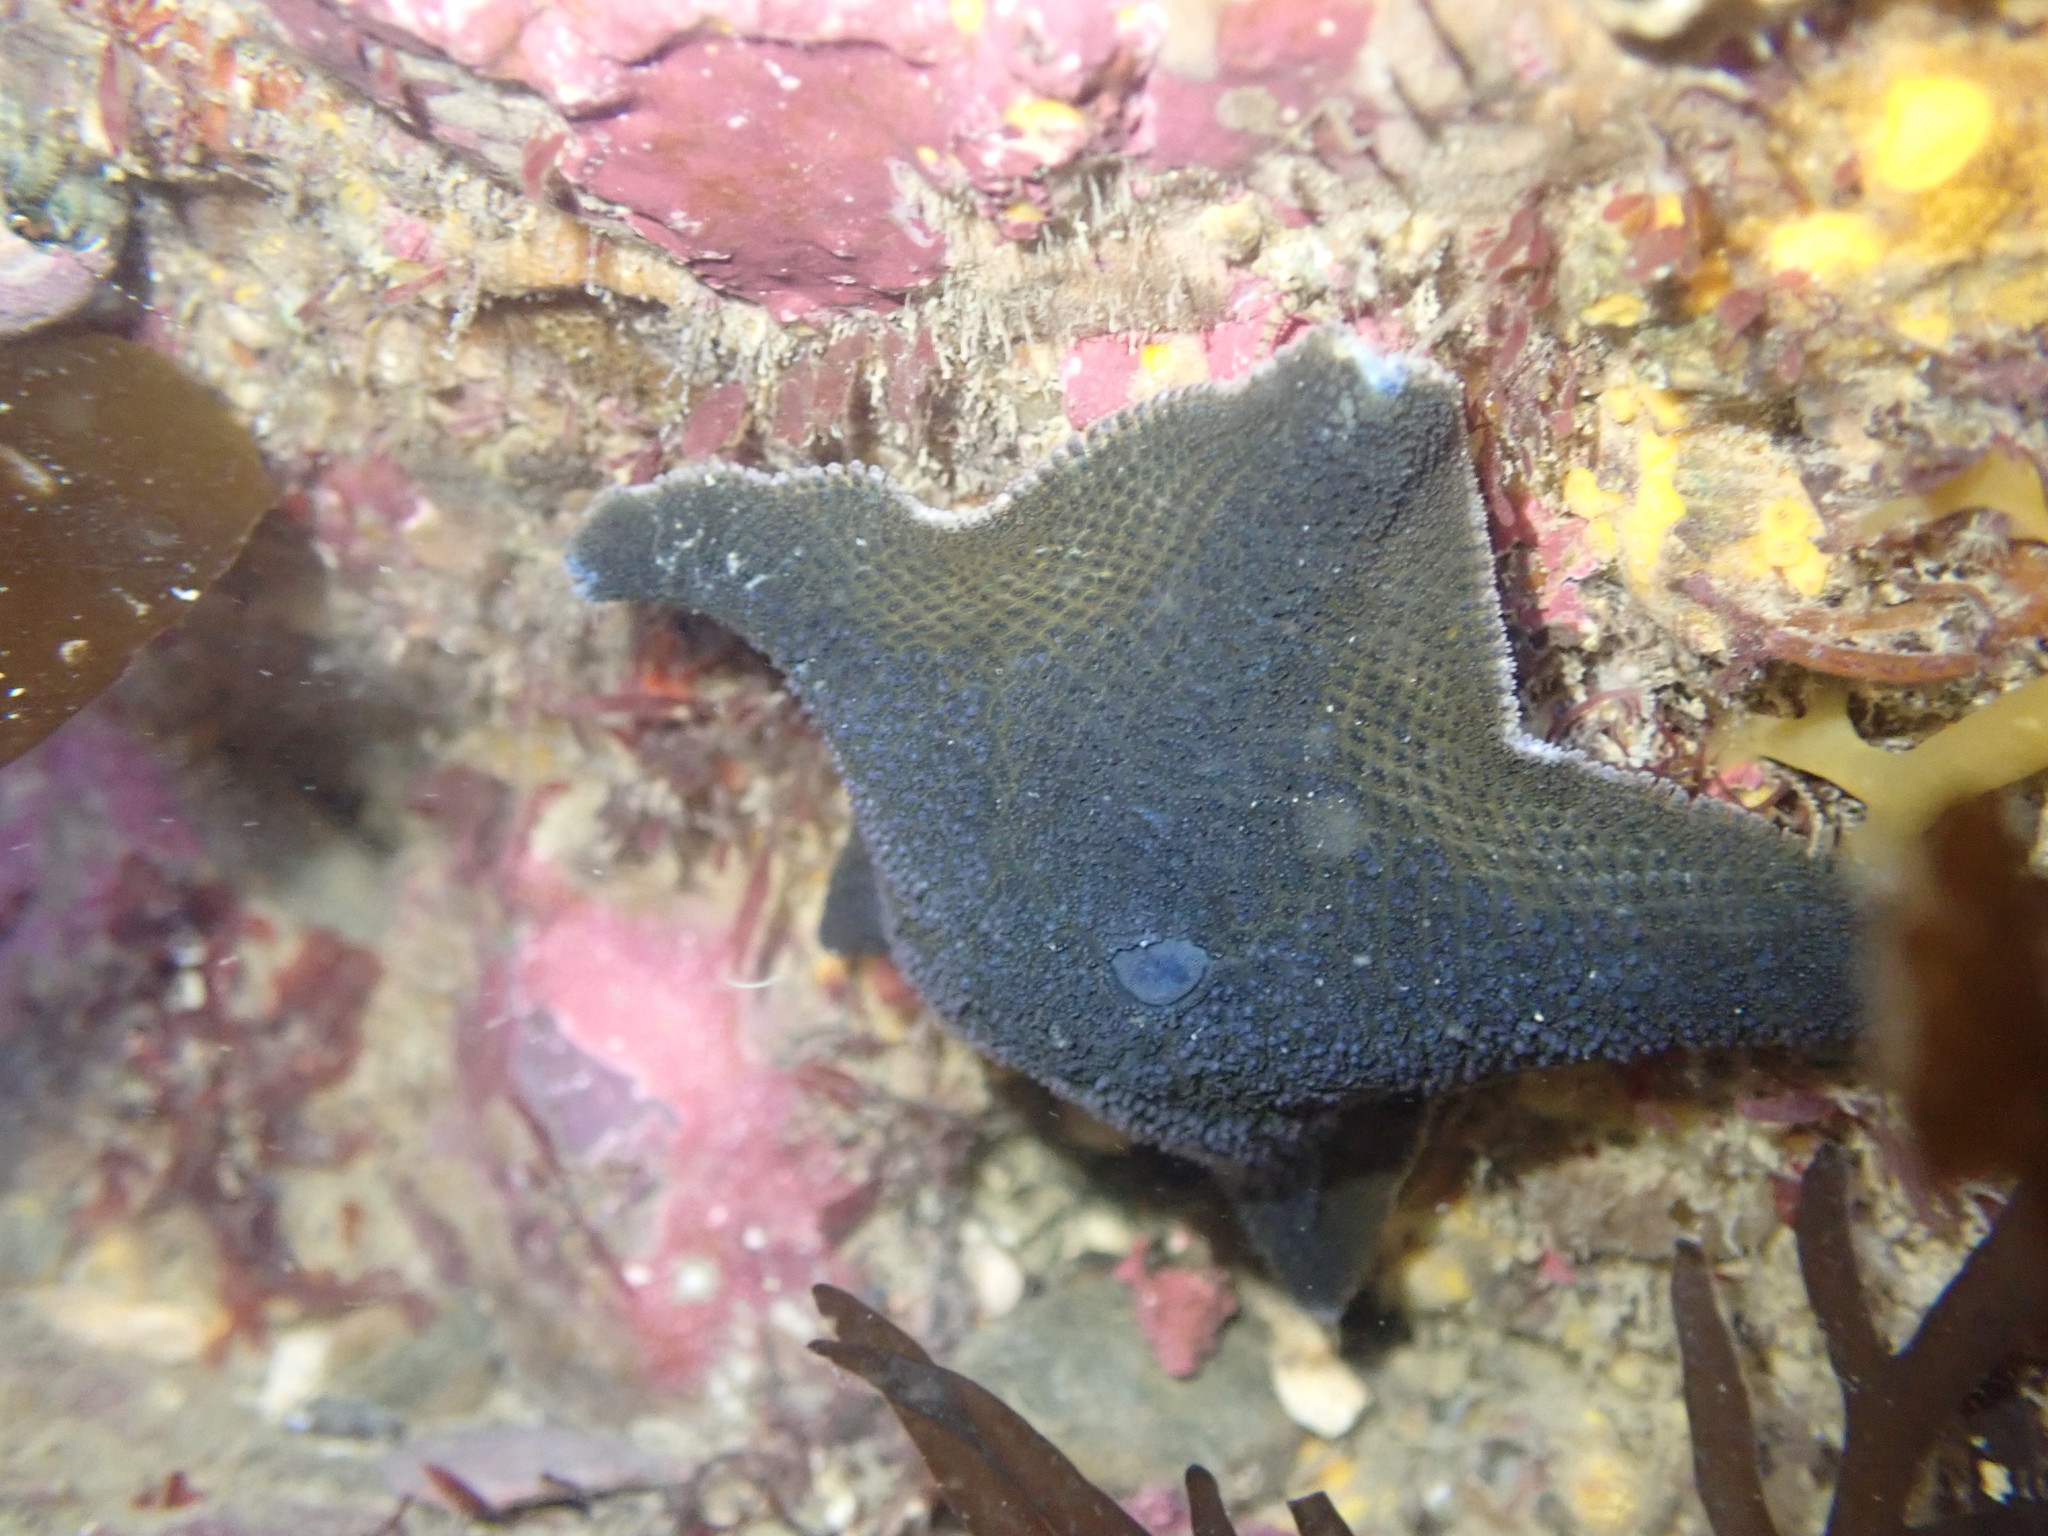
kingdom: Animalia
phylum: Echinodermata
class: Asteroidea
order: Valvatida
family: Asterinidae
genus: Patiriella
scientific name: Patiriella regularis
